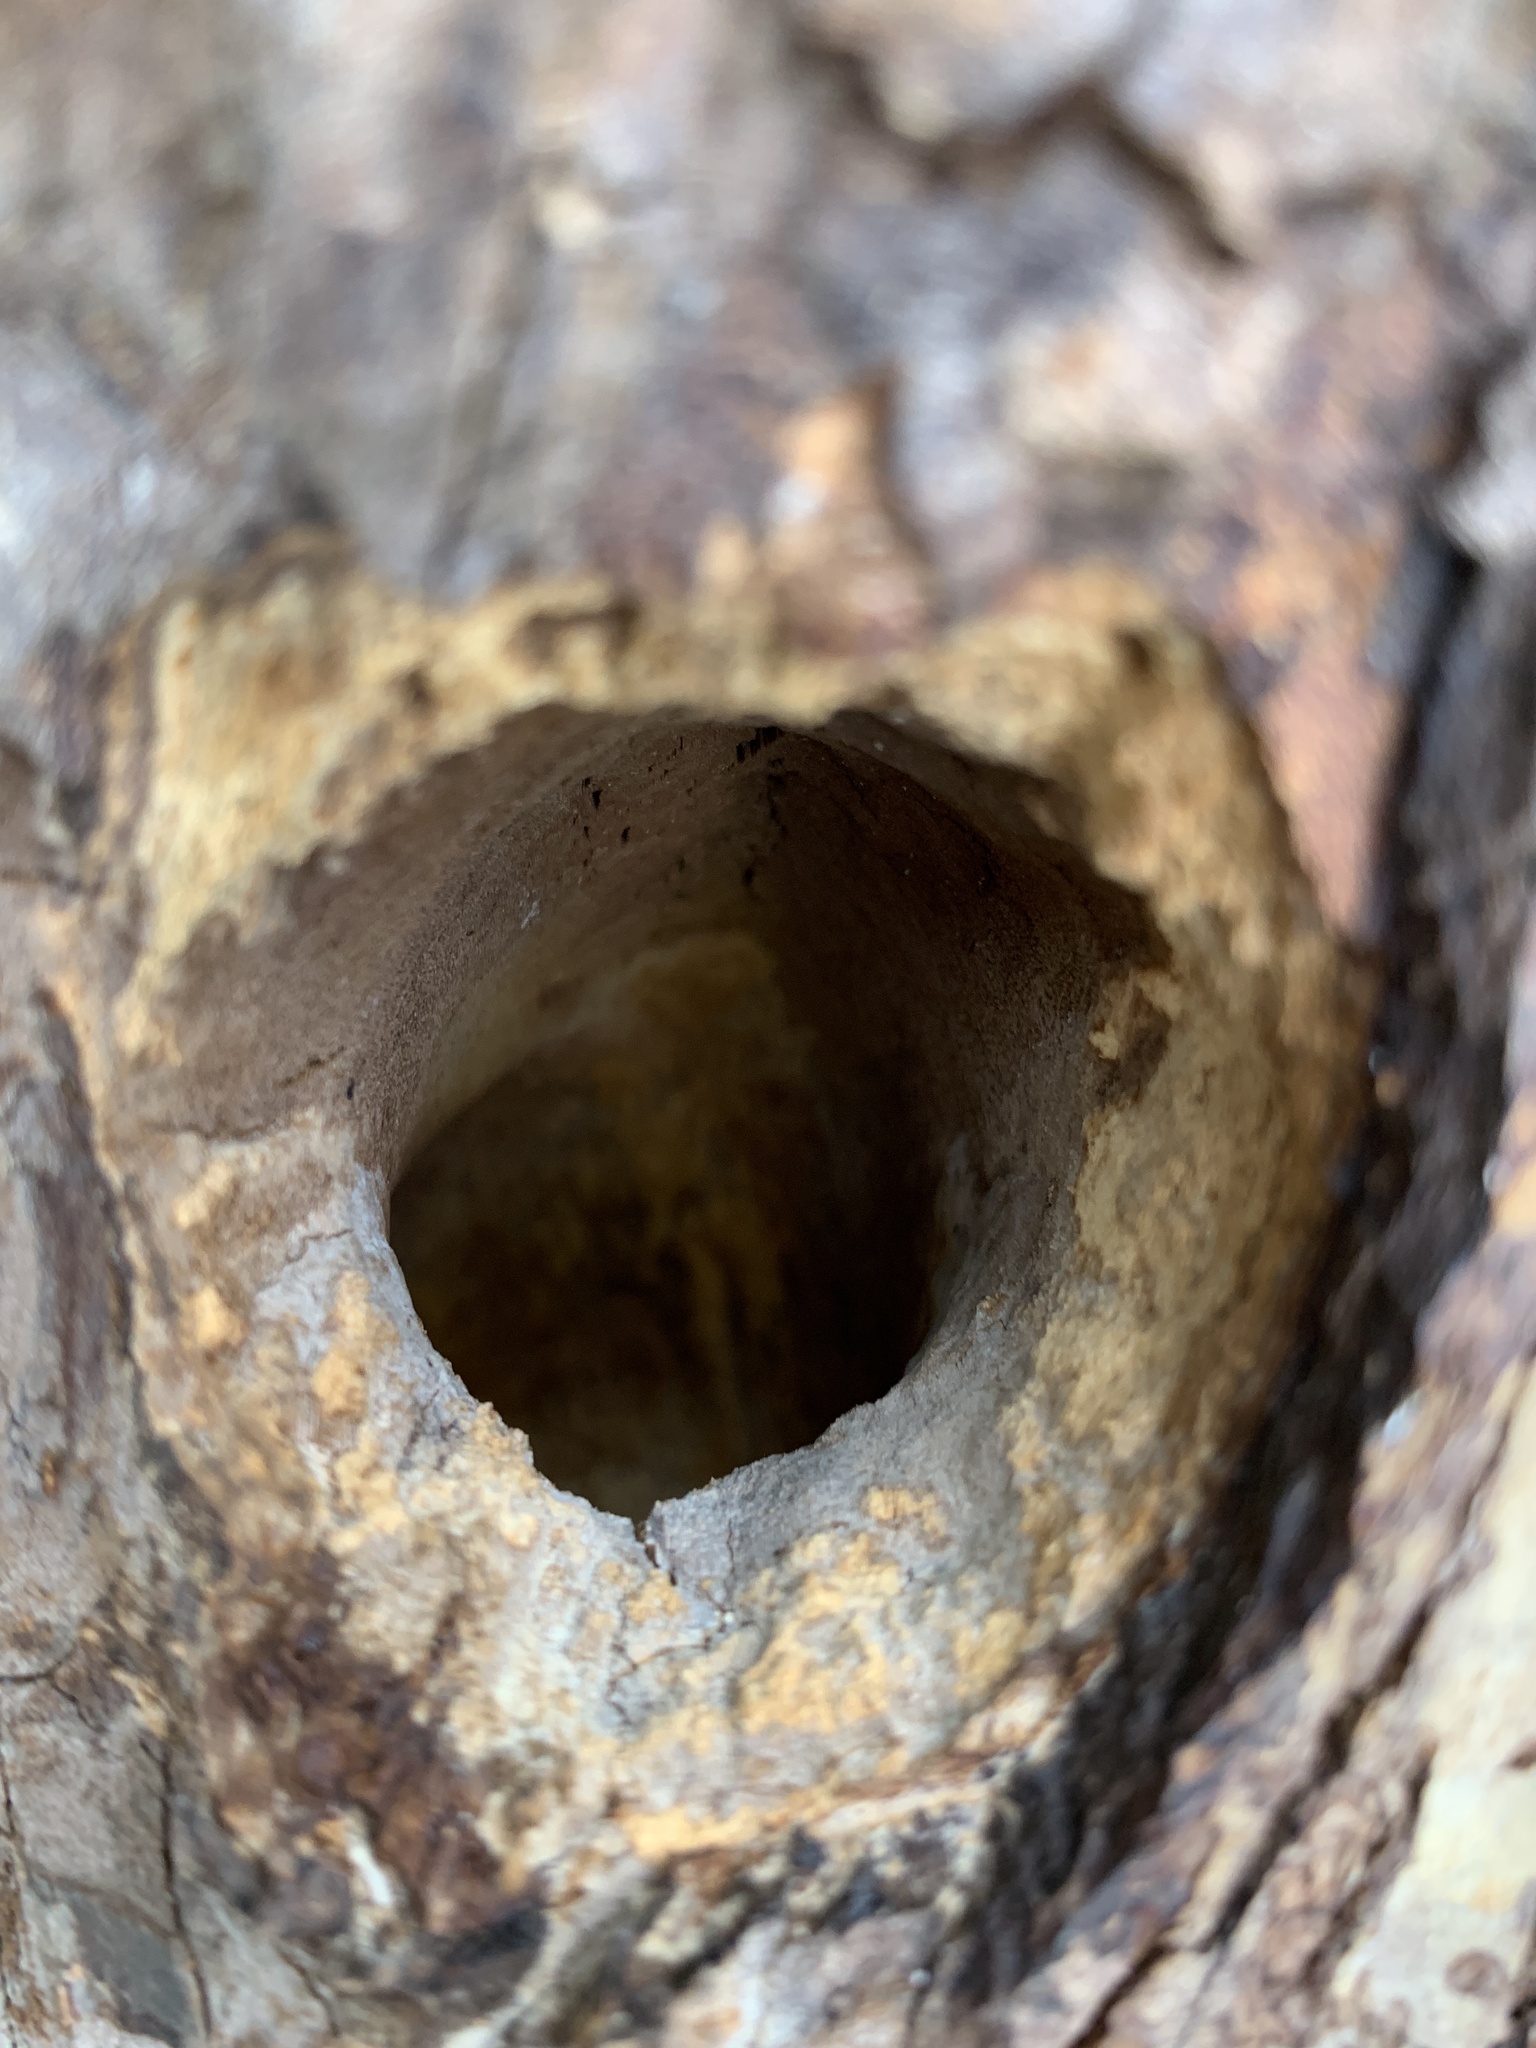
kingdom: Animalia
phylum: Chordata
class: Aves
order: Piciformes
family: Picidae
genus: Dryobates
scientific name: Dryobates pubescens
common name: Downy woodpecker
